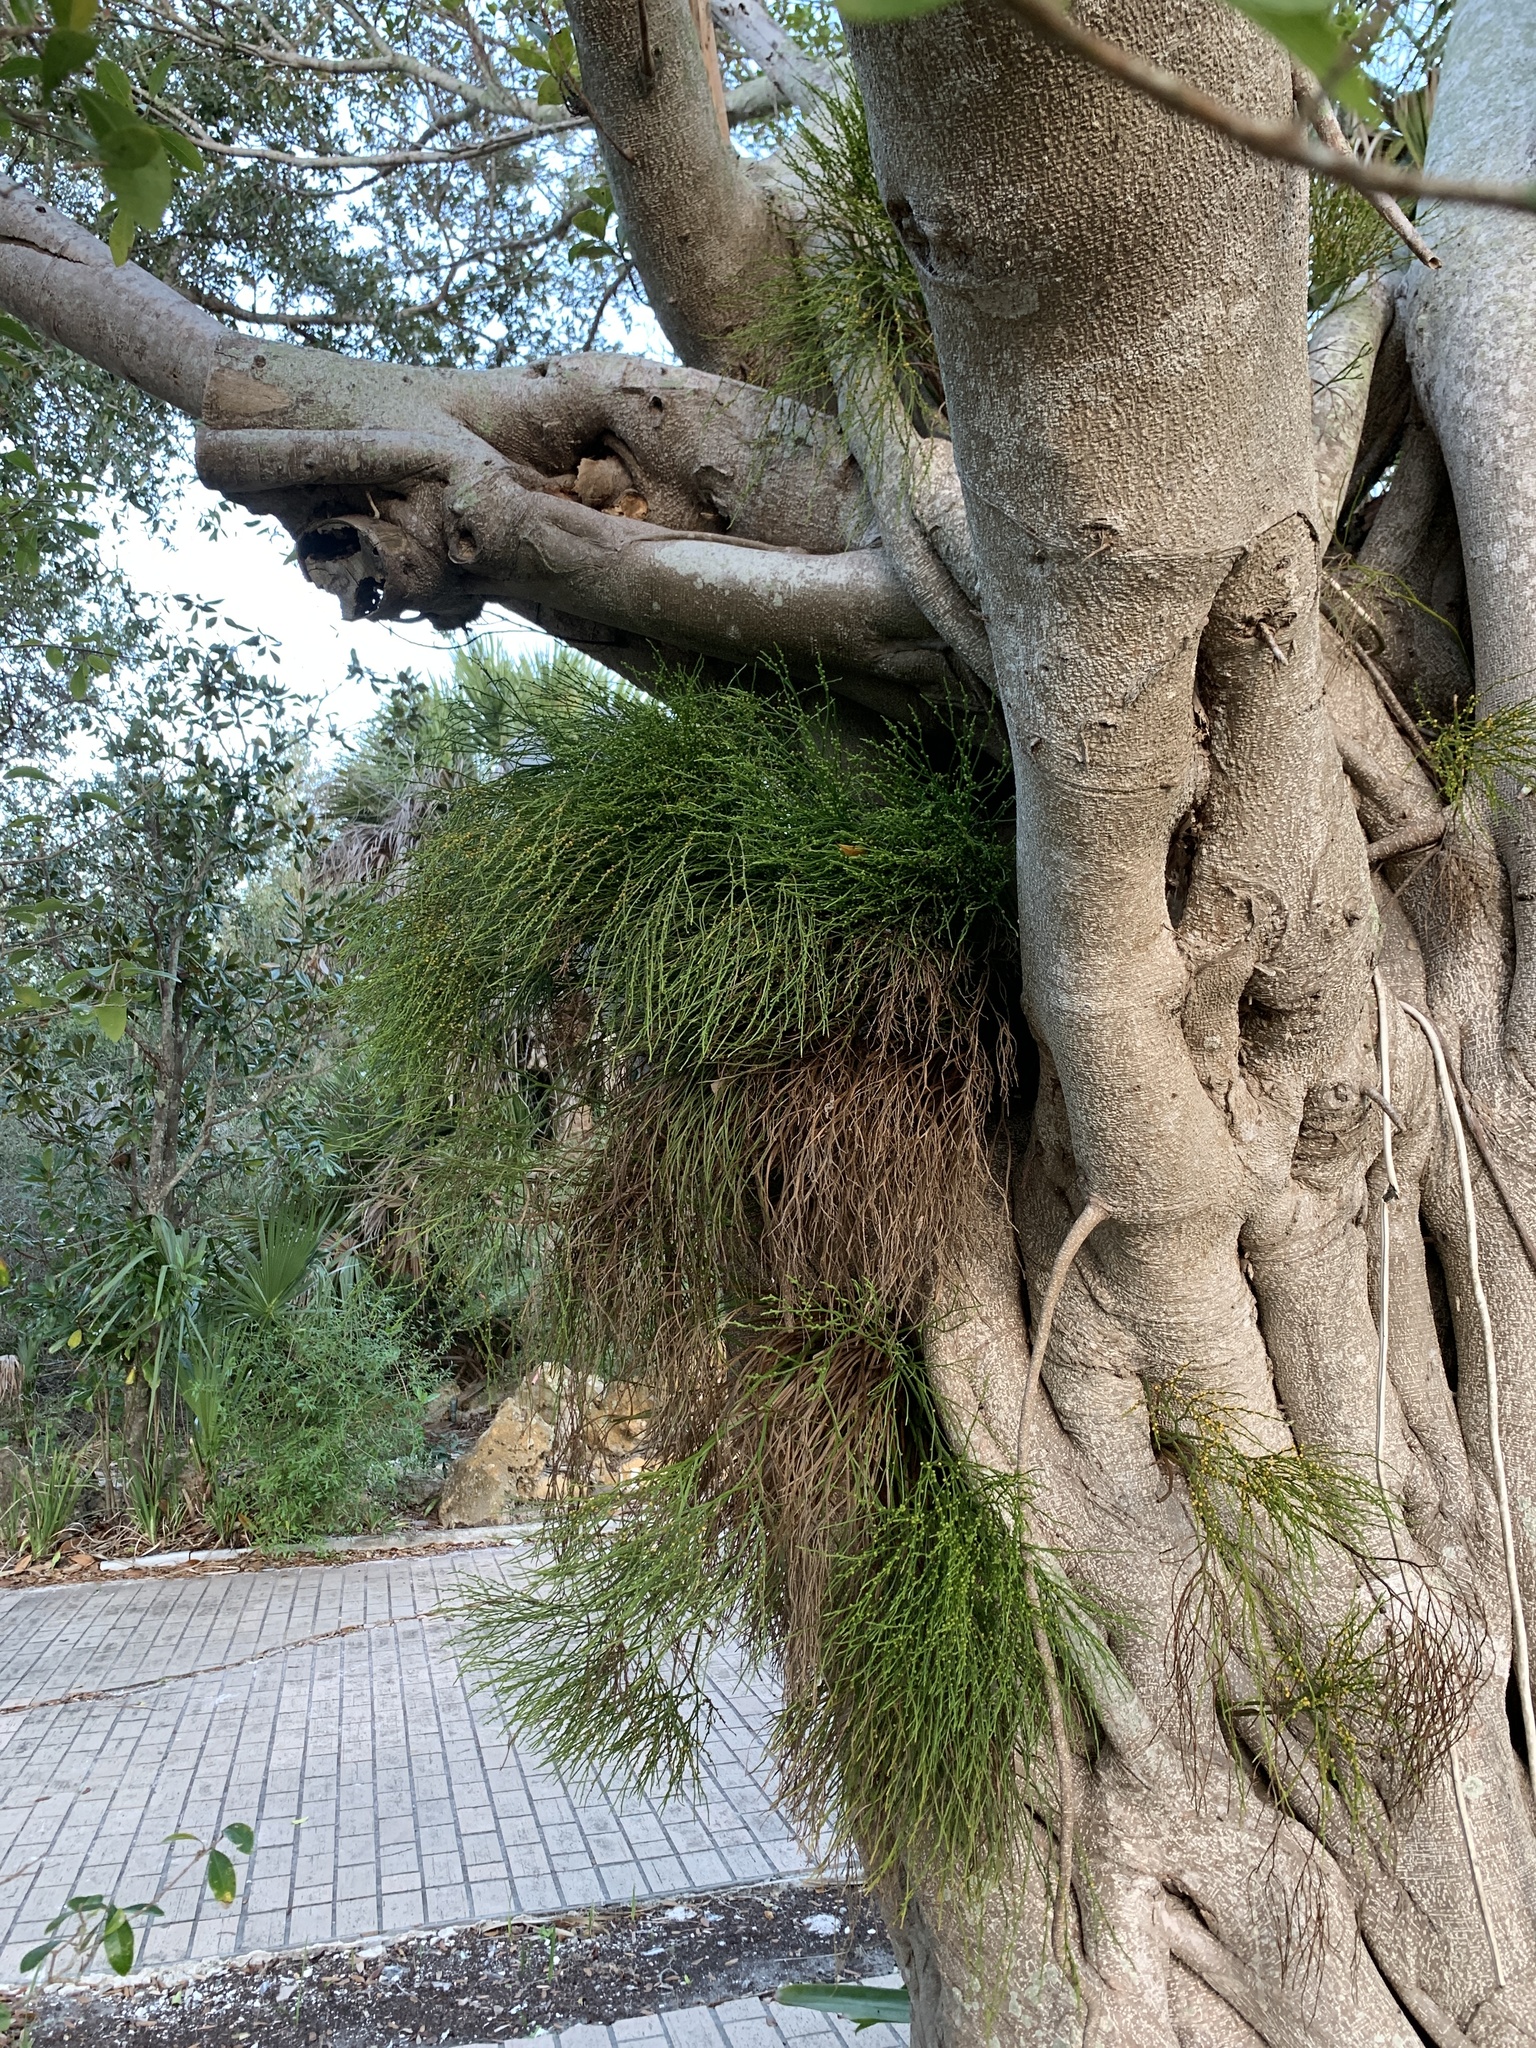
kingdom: Plantae
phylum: Tracheophyta
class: Polypodiopsida
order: Psilotales
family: Psilotaceae
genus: Psilotum
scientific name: Psilotum nudum
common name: Skeleton fork fern
